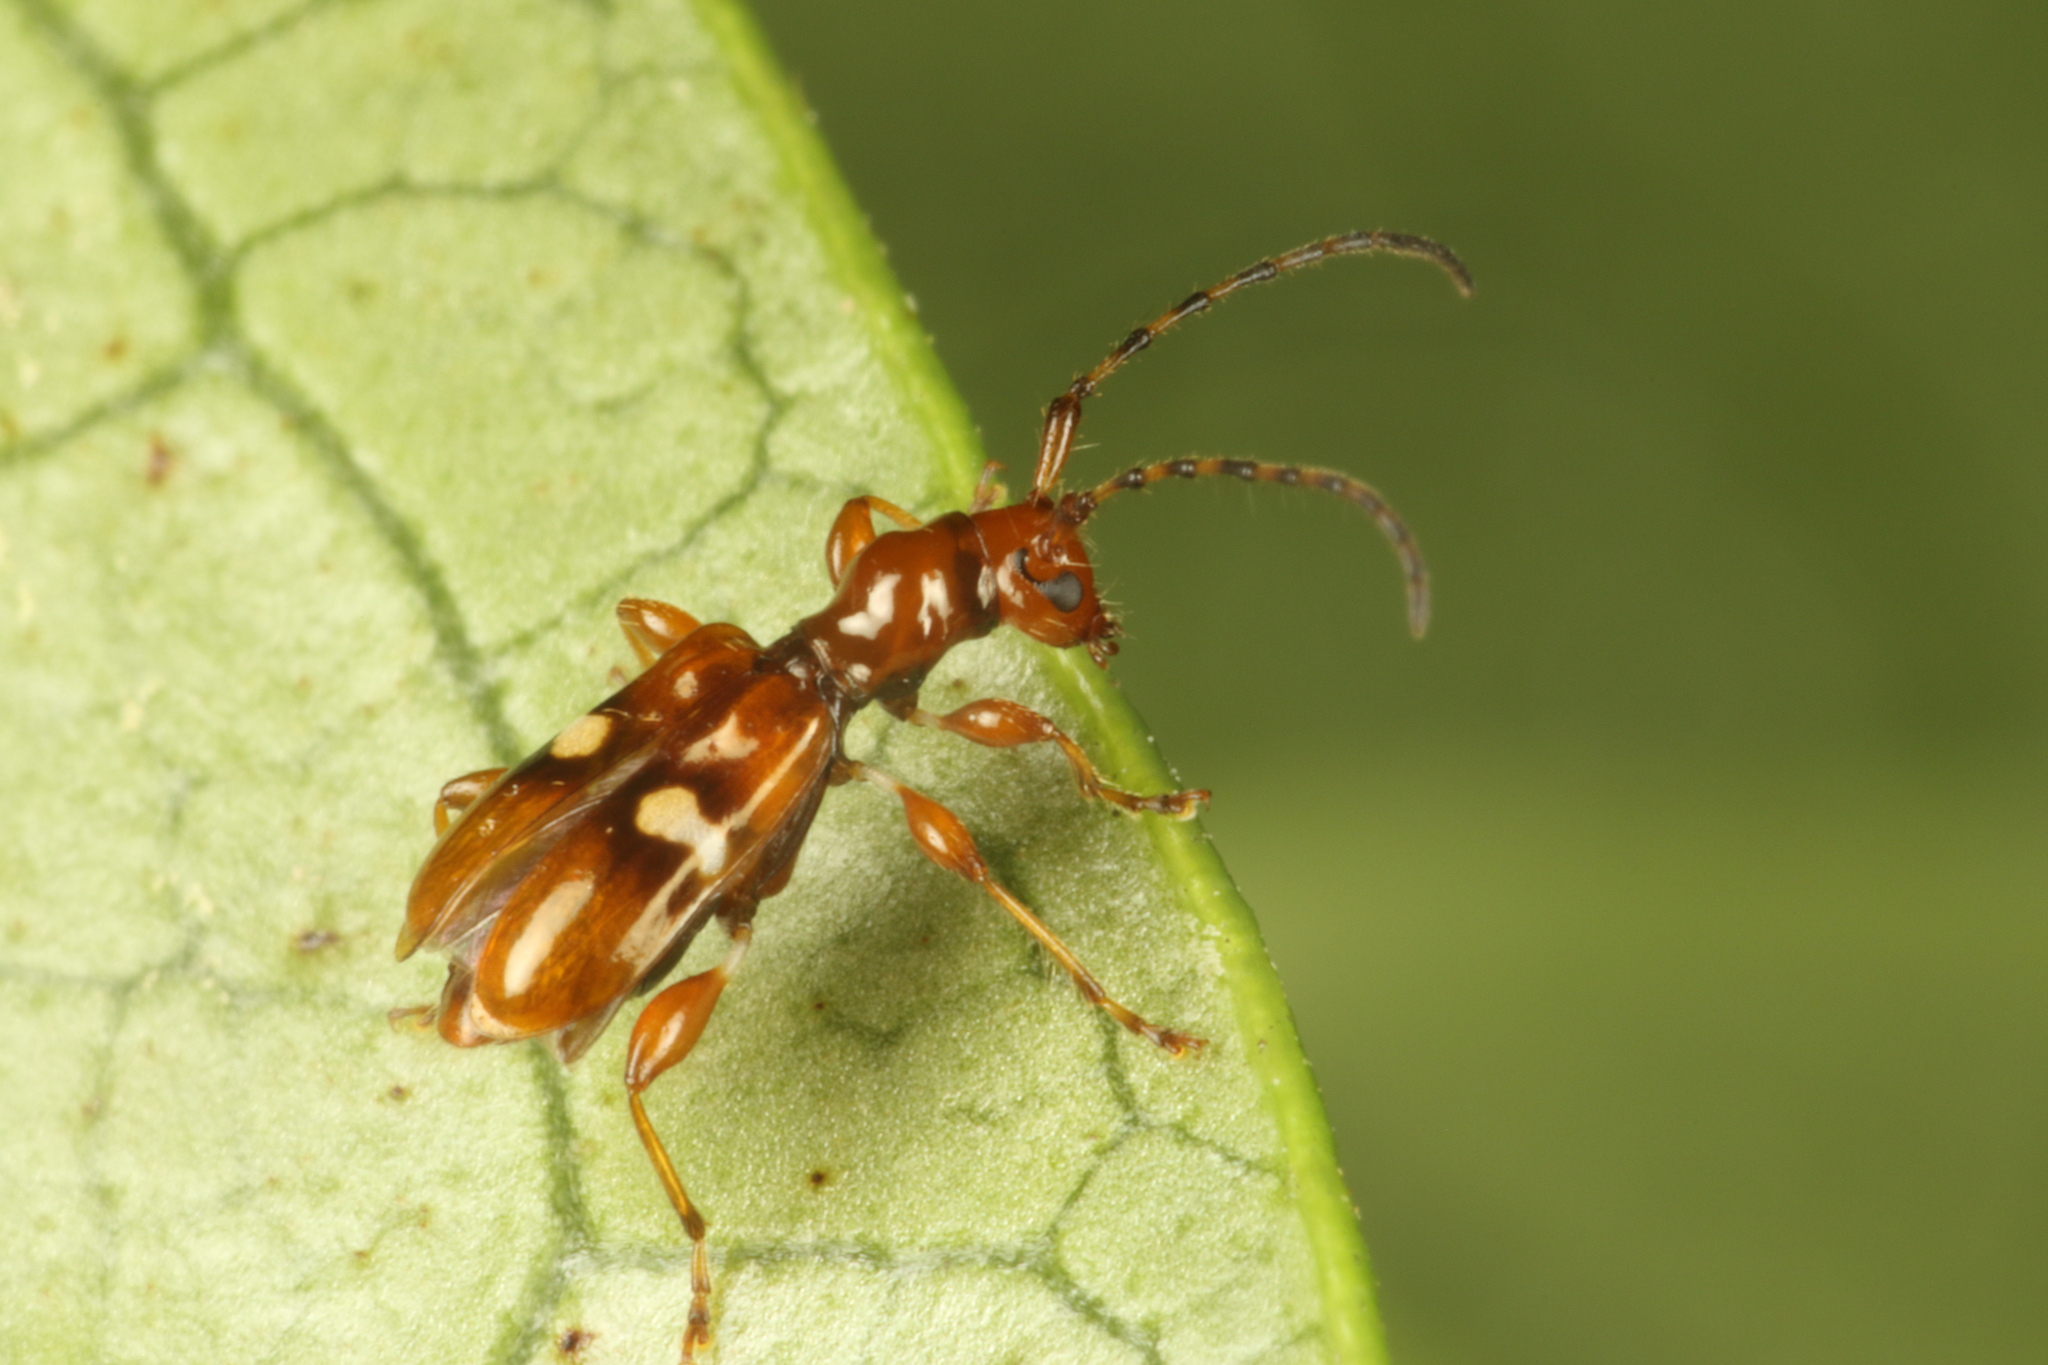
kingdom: Animalia
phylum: Arthropoda
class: Insecta
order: Coleoptera
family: Cerambycidae
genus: Zorion
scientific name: Zorion australe
